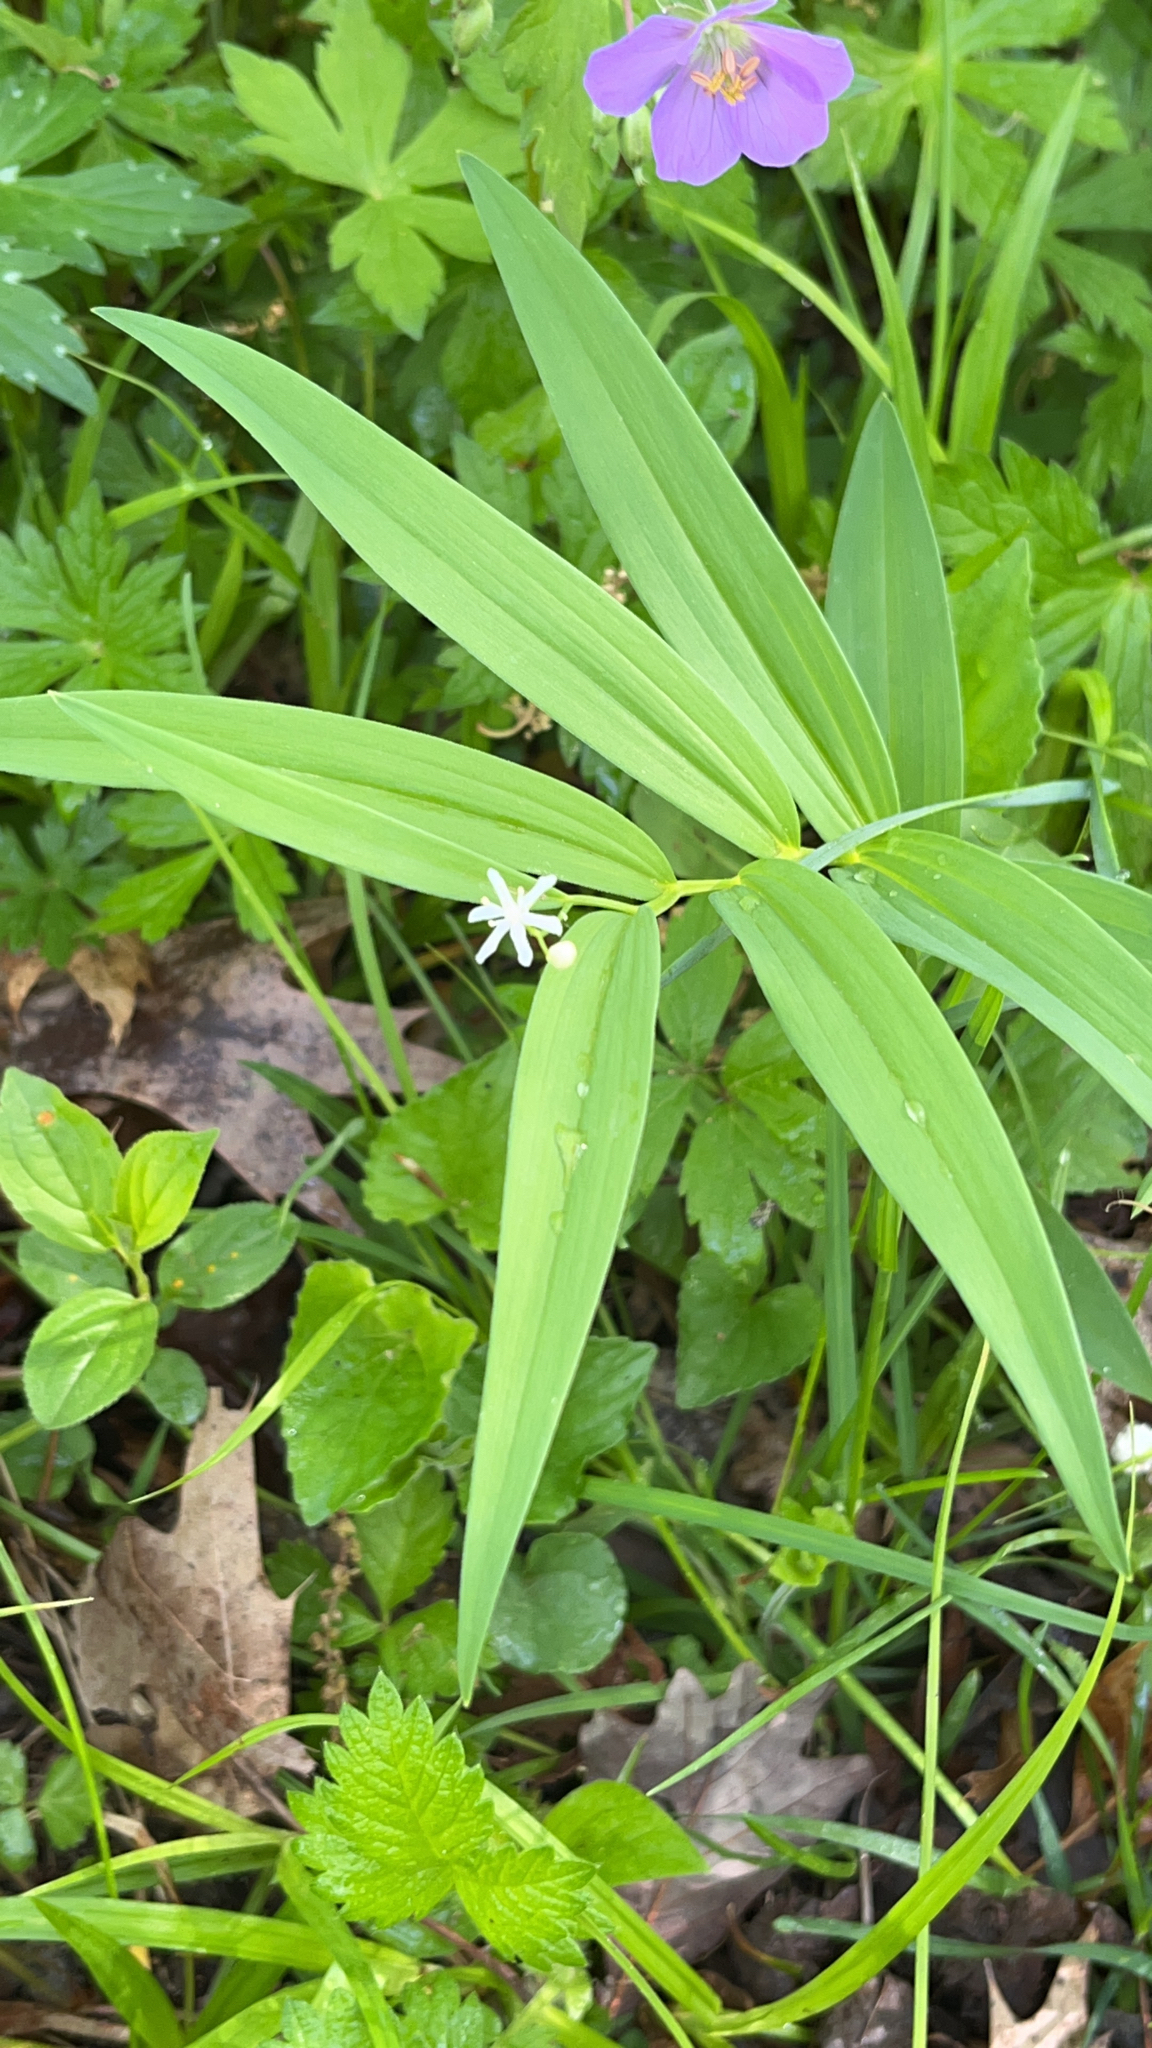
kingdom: Plantae
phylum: Tracheophyta
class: Liliopsida
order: Asparagales
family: Asparagaceae
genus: Maianthemum
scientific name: Maianthemum stellatum
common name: Little false solomon's seal
